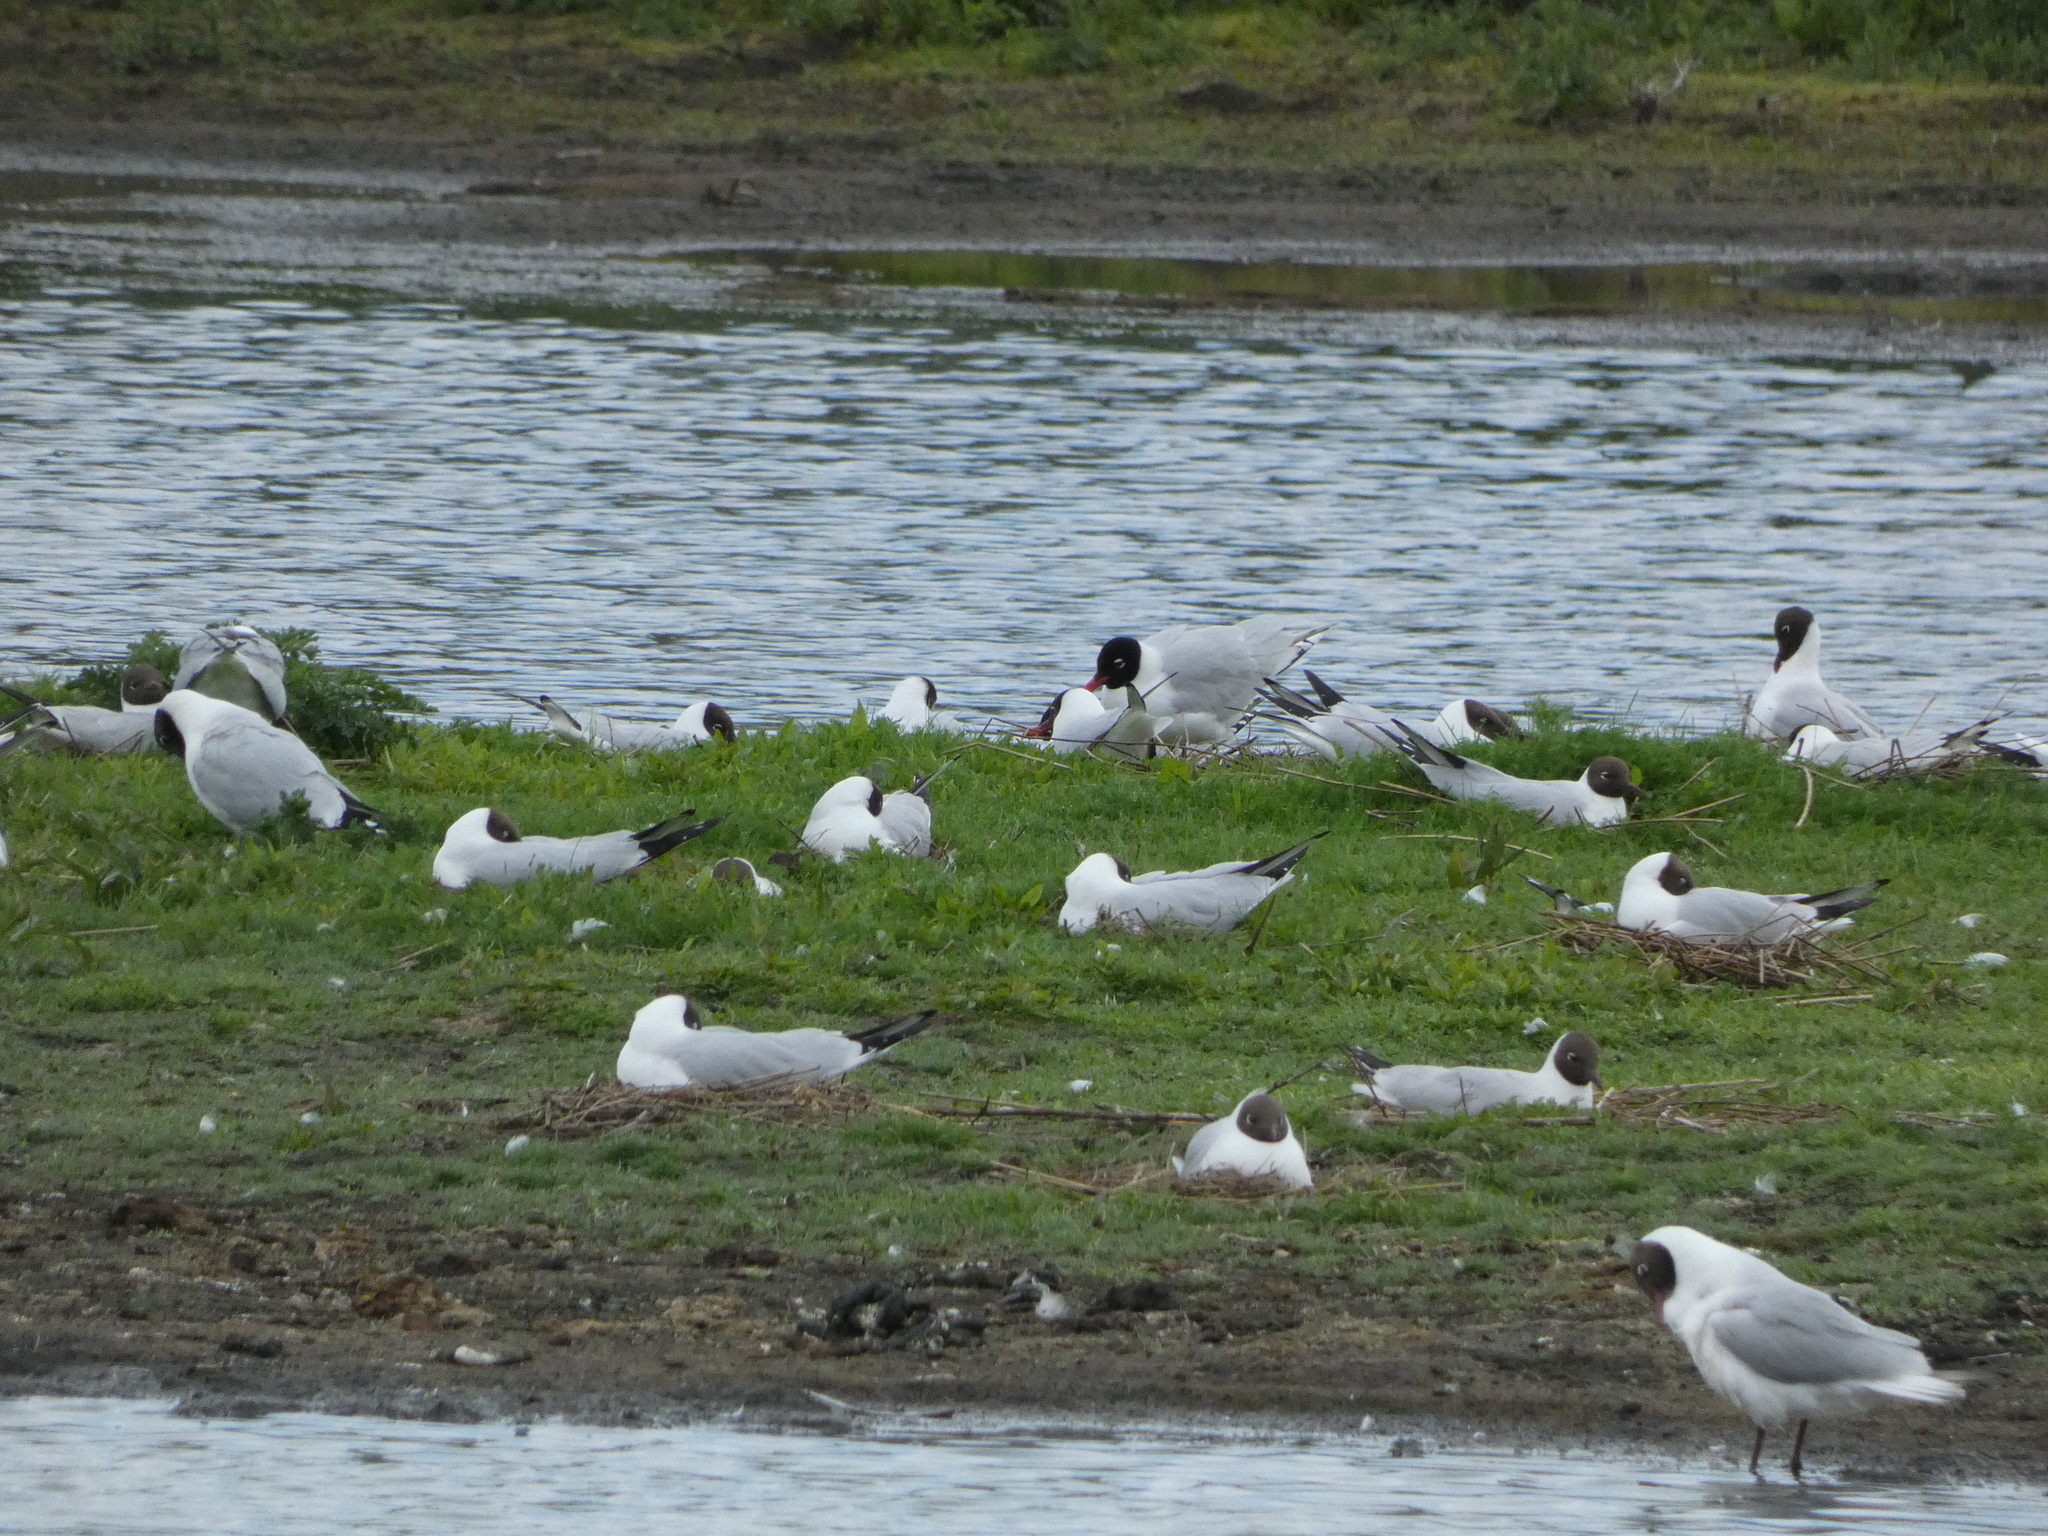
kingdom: Animalia
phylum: Chordata
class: Aves
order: Charadriiformes
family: Laridae
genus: Ichthyaetus
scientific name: Ichthyaetus melanocephalus
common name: Mediterranean gull
